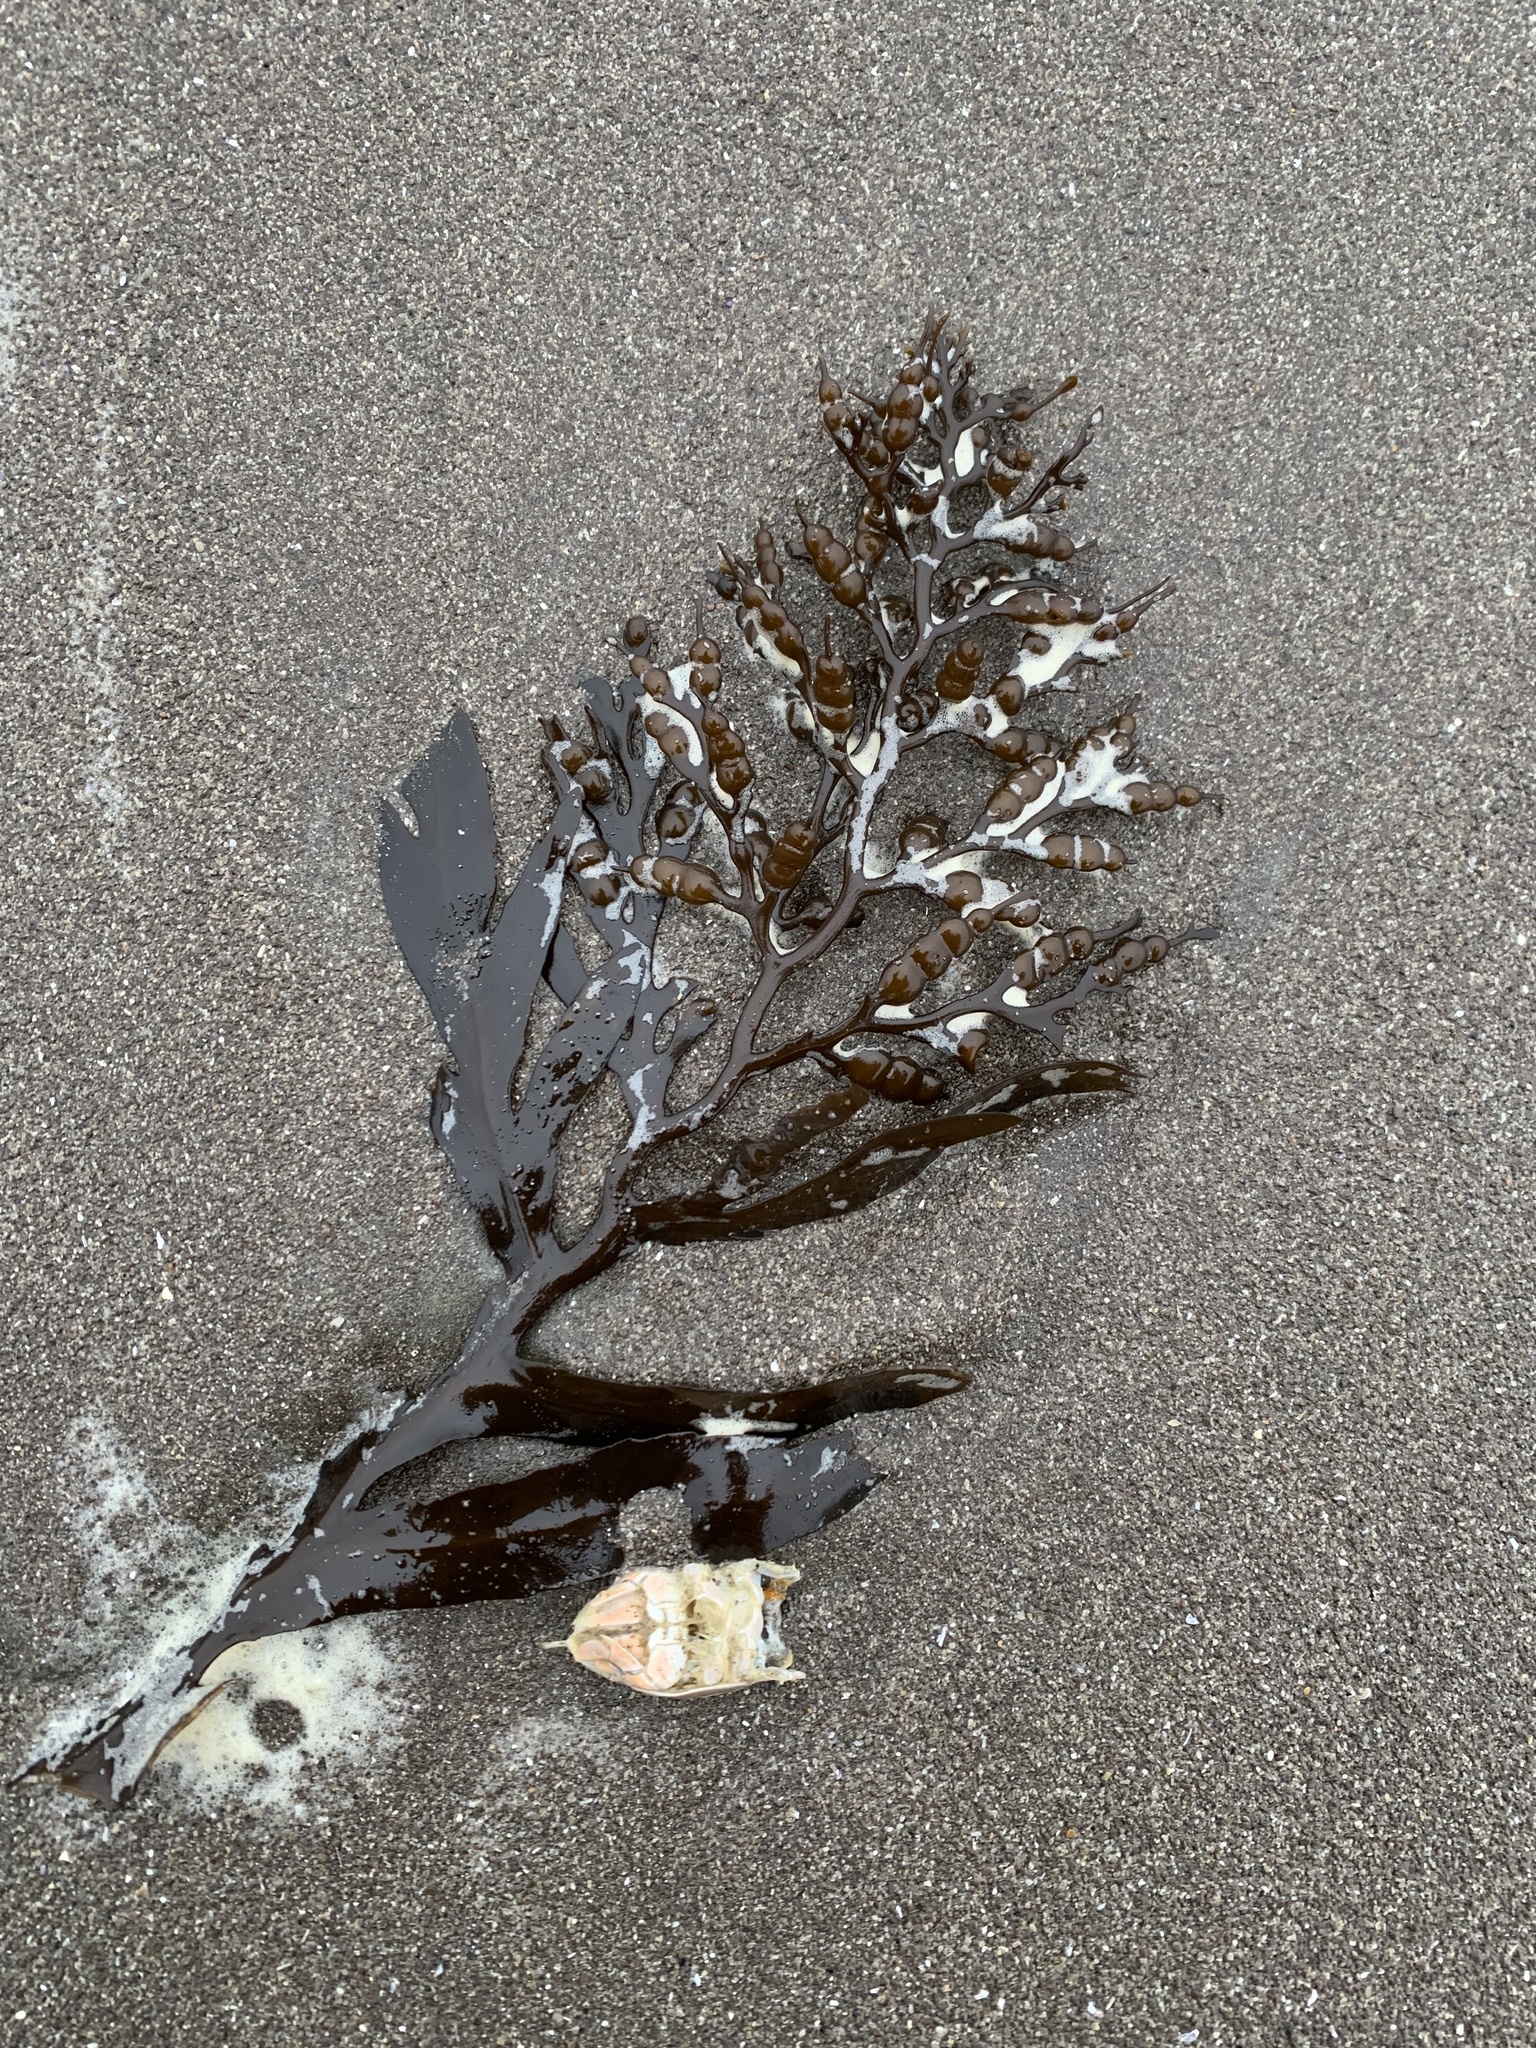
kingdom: Chromista
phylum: Ochrophyta
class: Phaeophyceae
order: Fucales
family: Sargassaceae
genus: Stephanocystis
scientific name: Stephanocystis
